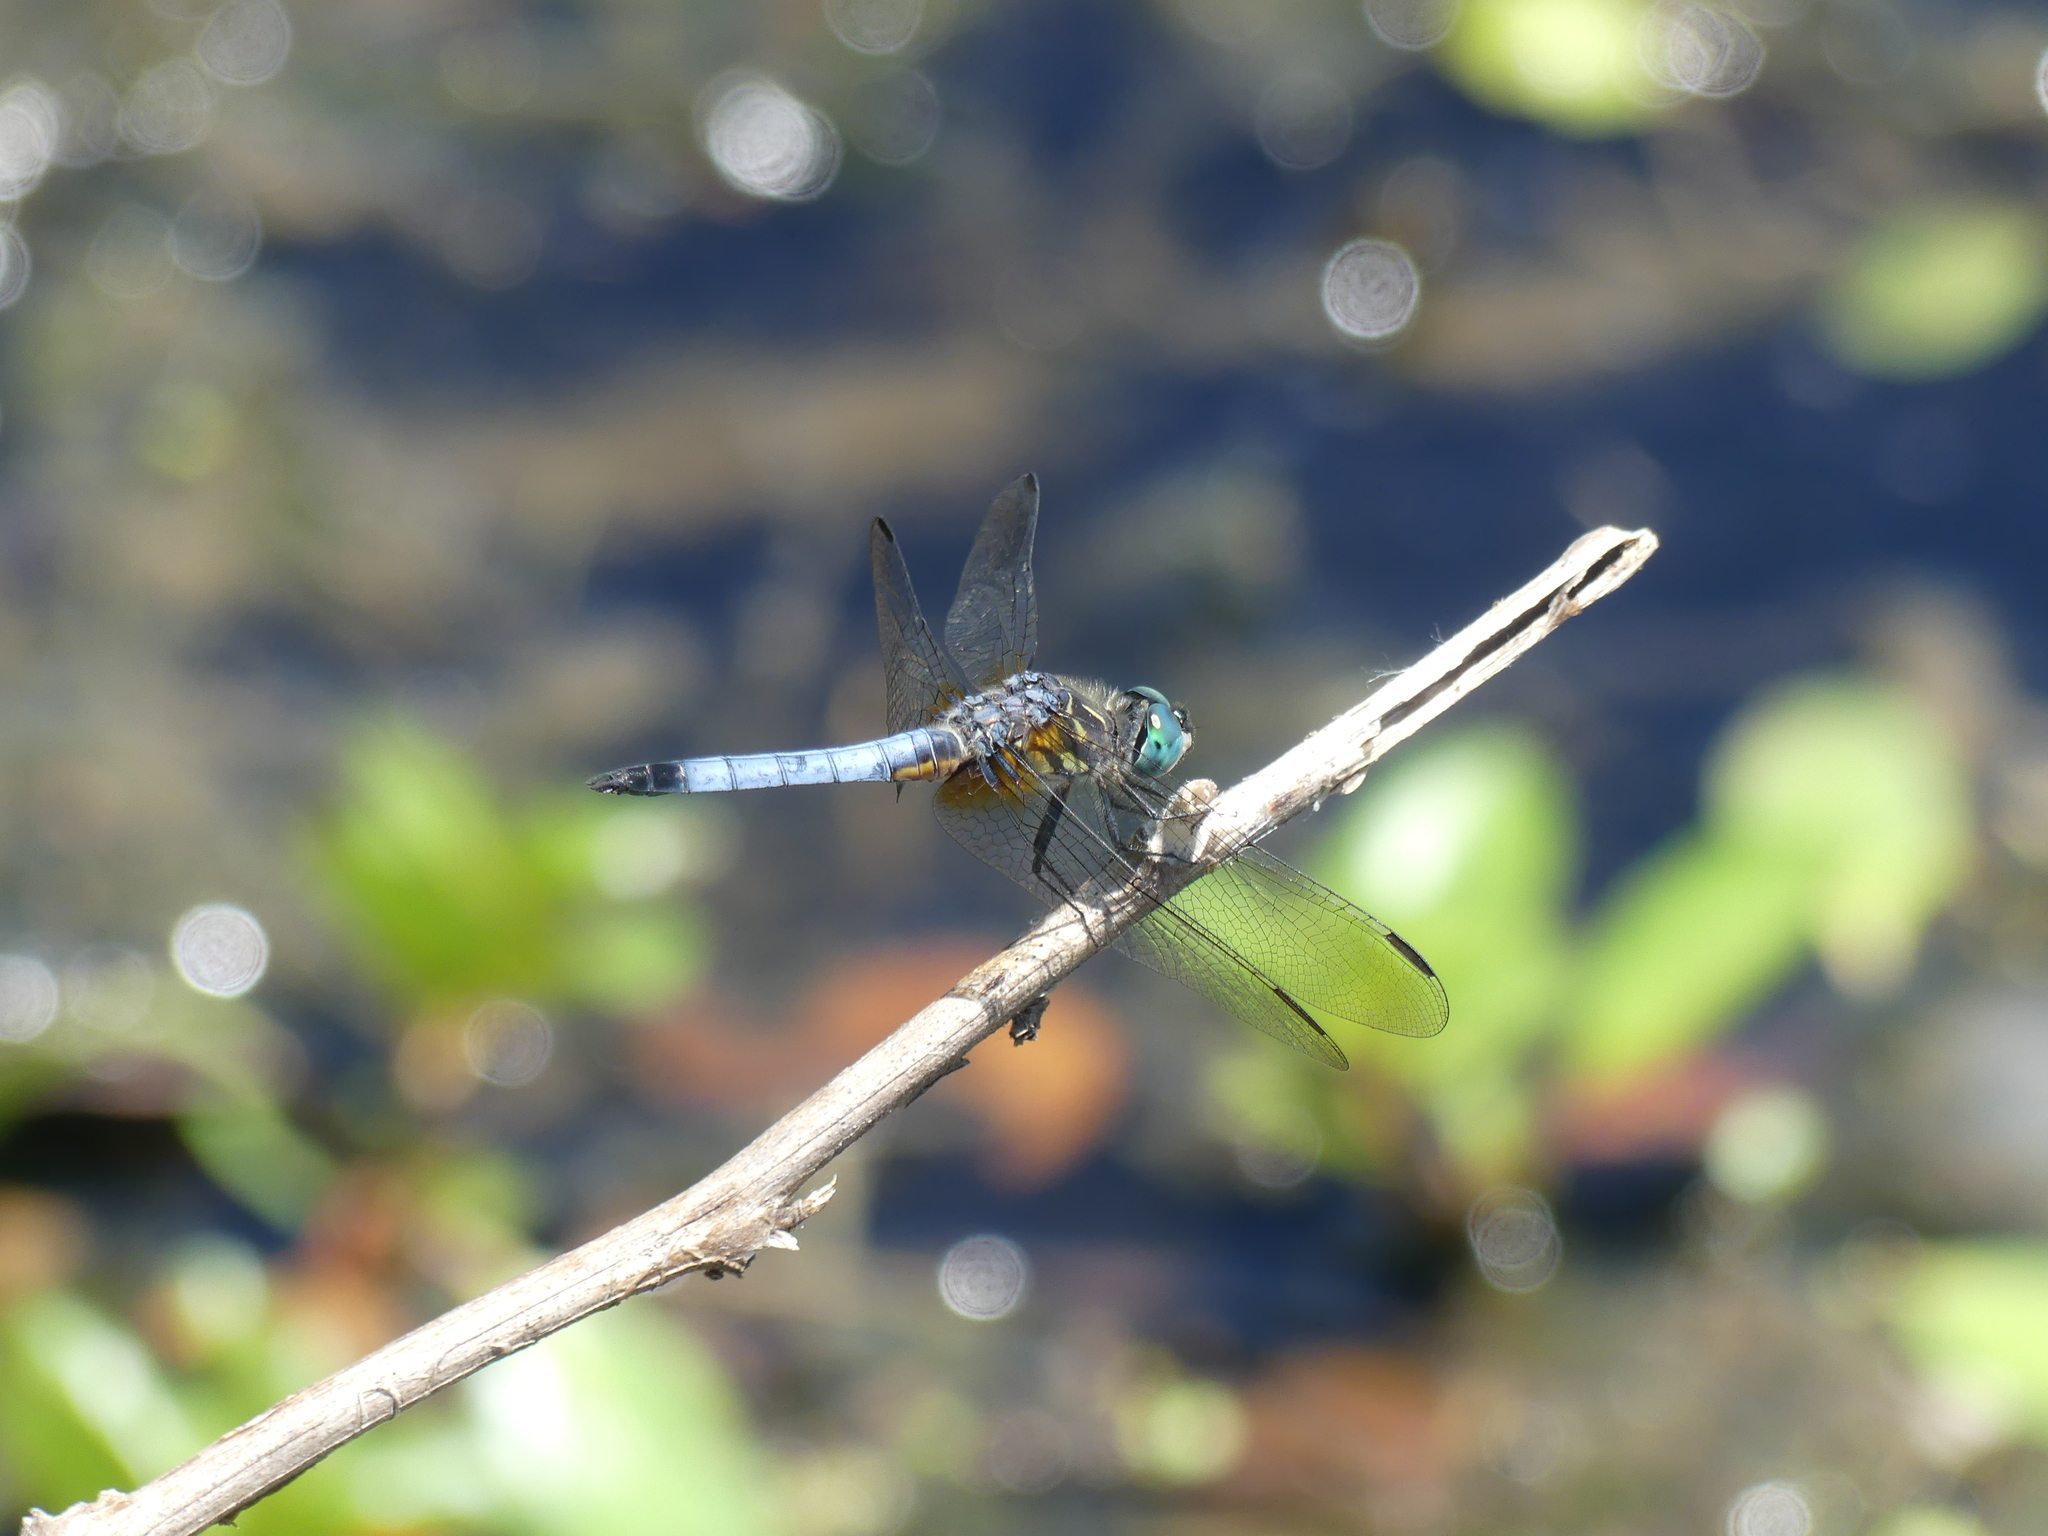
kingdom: Animalia
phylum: Arthropoda
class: Insecta
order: Odonata
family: Libellulidae
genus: Pachydiplax
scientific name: Pachydiplax longipennis
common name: Blue dasher
